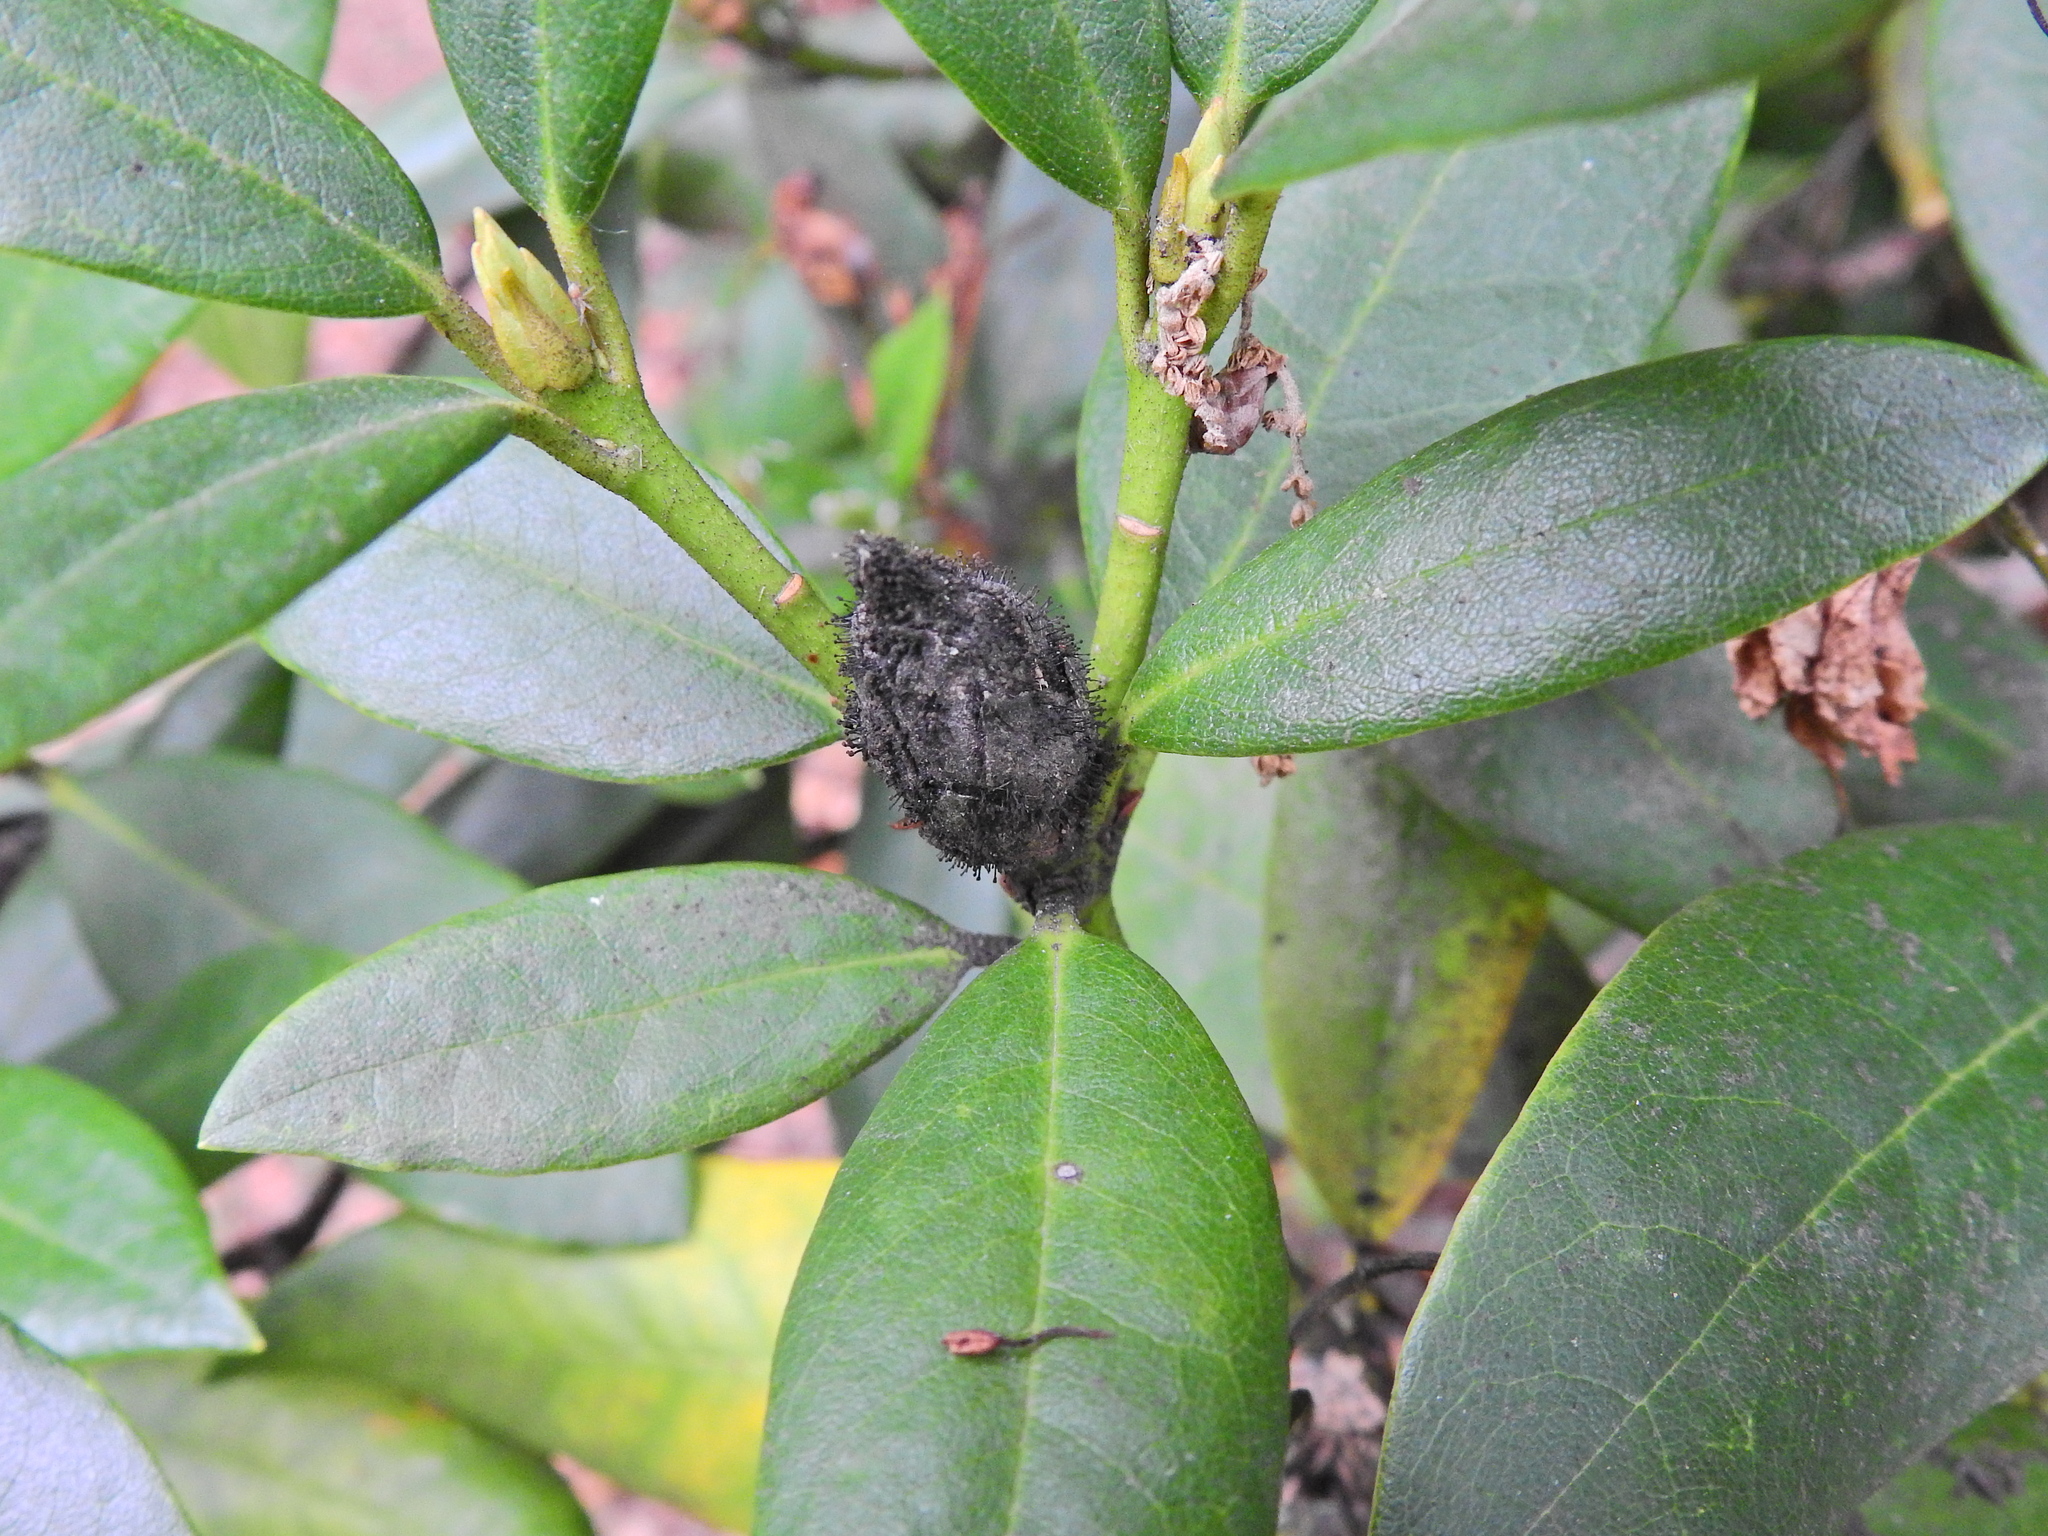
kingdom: Fungi
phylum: Ascomycota
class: Dothideomycetes
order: Pleosporales
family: Melanommataceae
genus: Seifertia
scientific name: Seifertia azaleae
